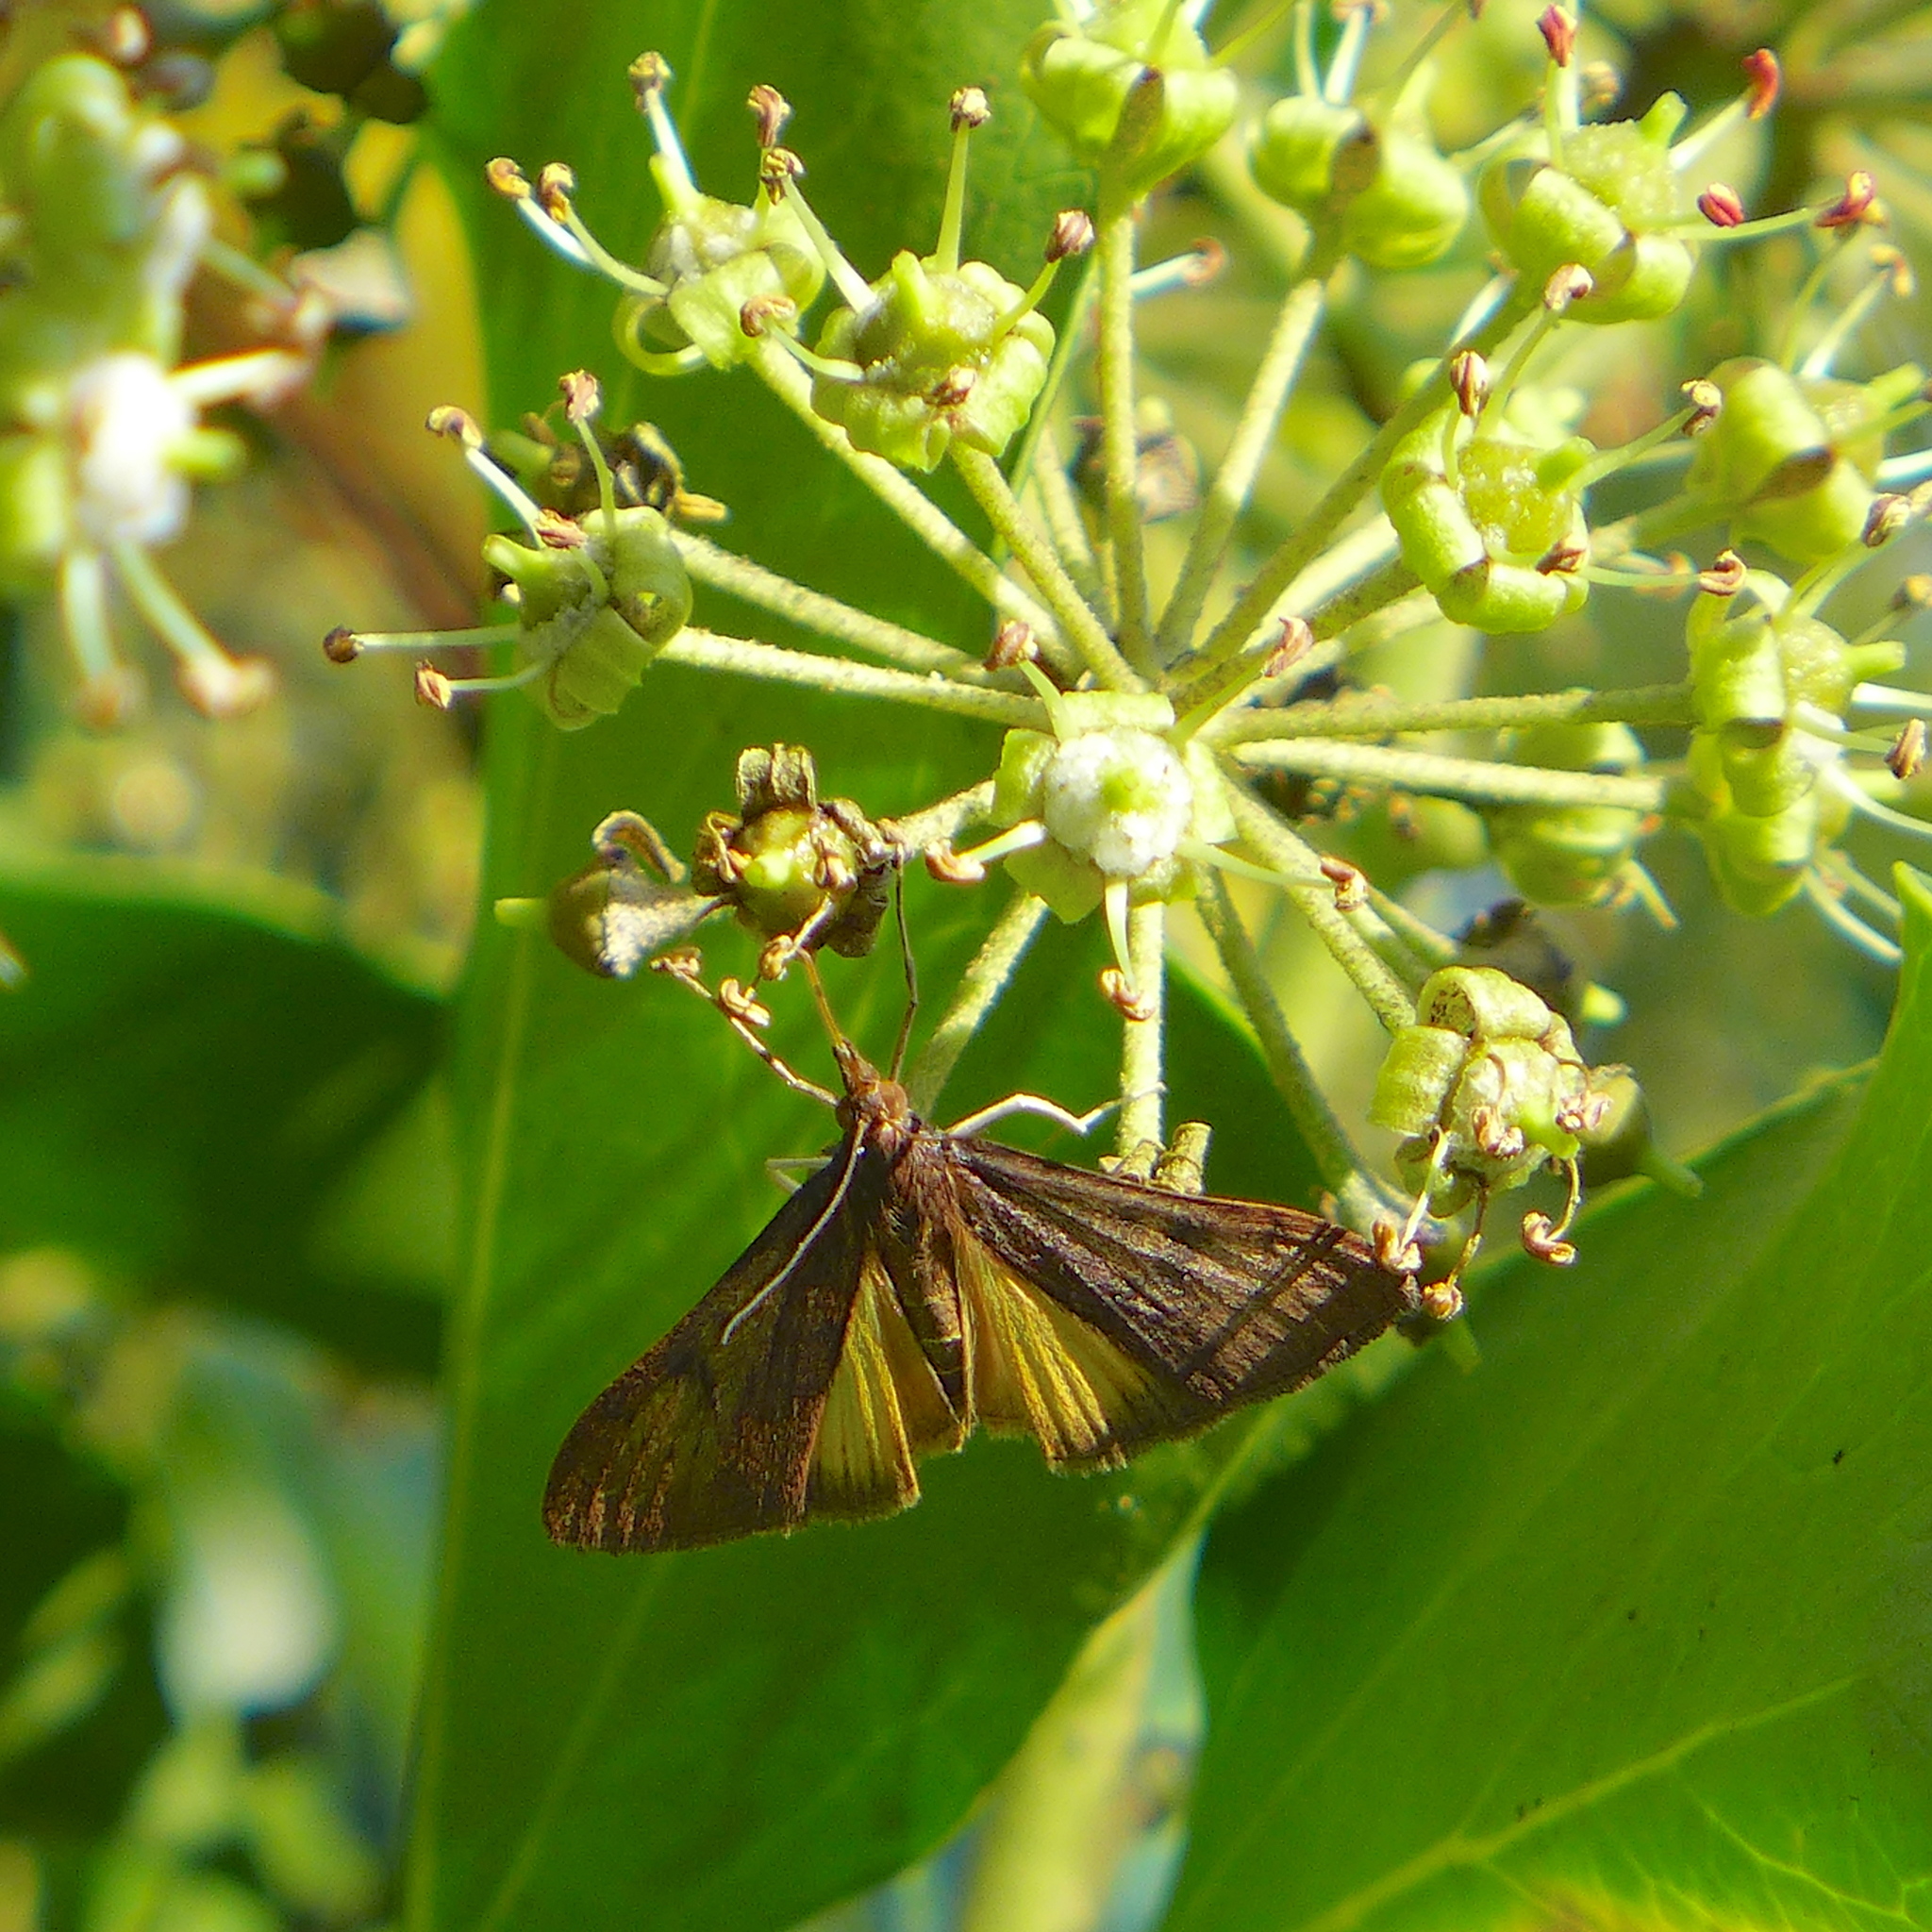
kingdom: Animalia
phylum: Arthropoda
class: Insecta
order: Lepidoptera
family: Crambidae
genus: Uresiphita
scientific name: Uresiphita reversalis
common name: Genista broom moth
